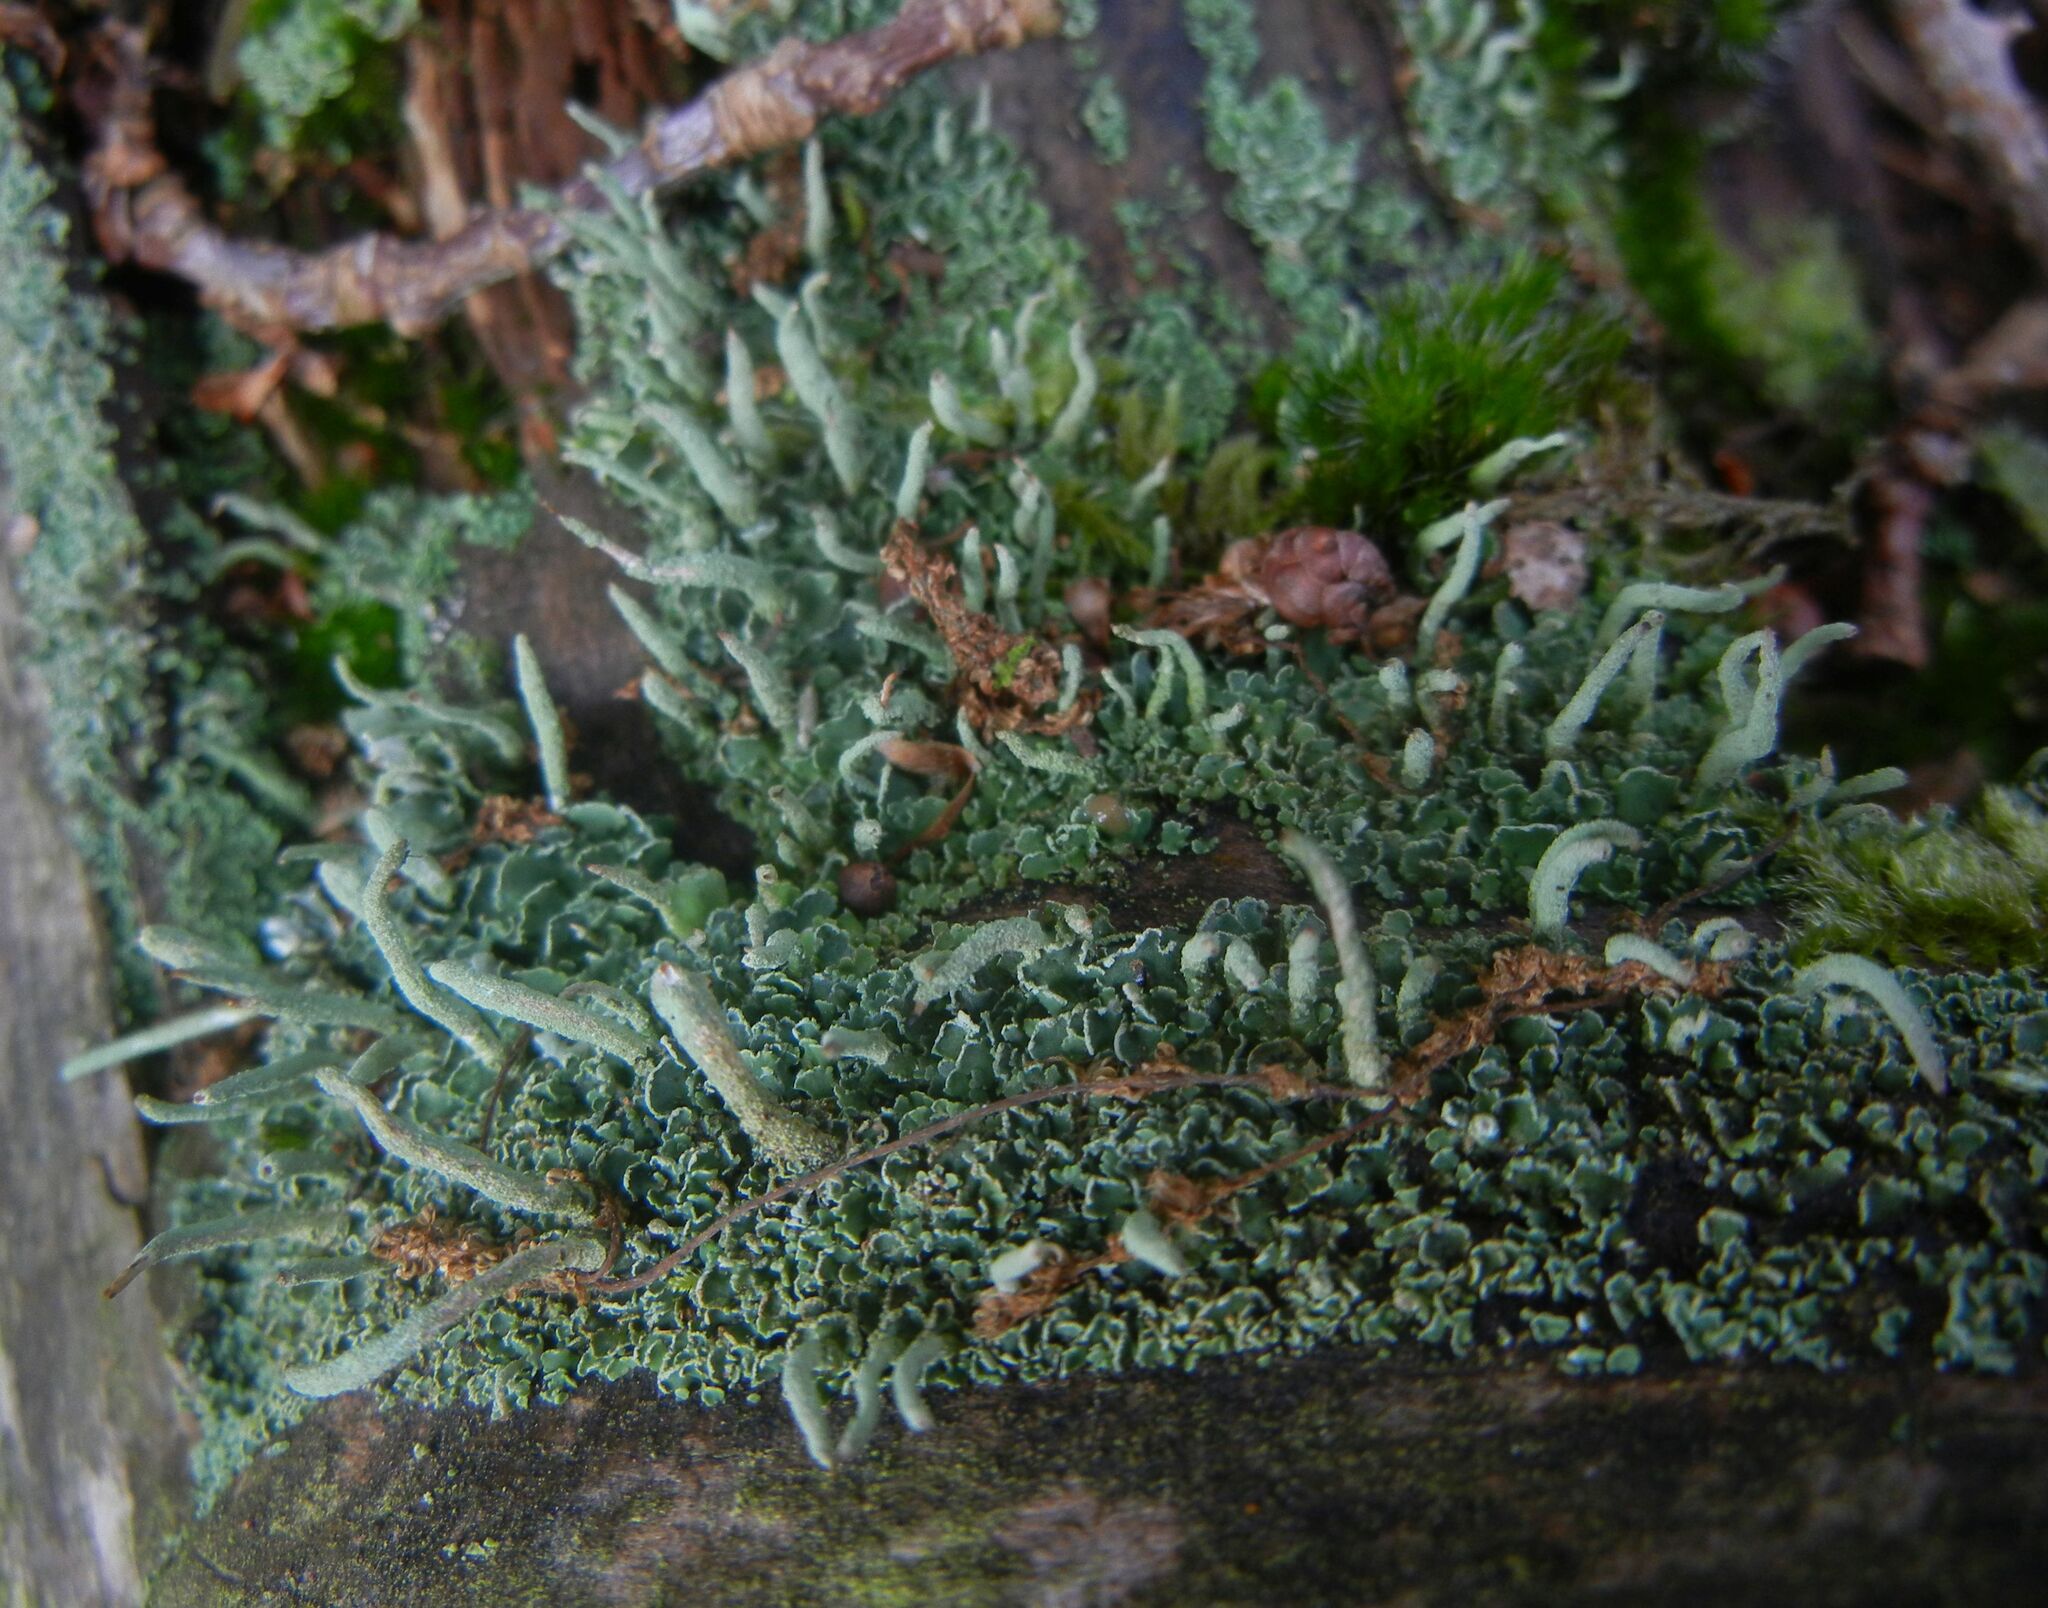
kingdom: Fungi
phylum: Ascomycota
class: Lecanoromycetes
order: Lecanorales
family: Cladoniaceae
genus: Cladonia
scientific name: Cladonia coniocraea
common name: Common powderhorn
